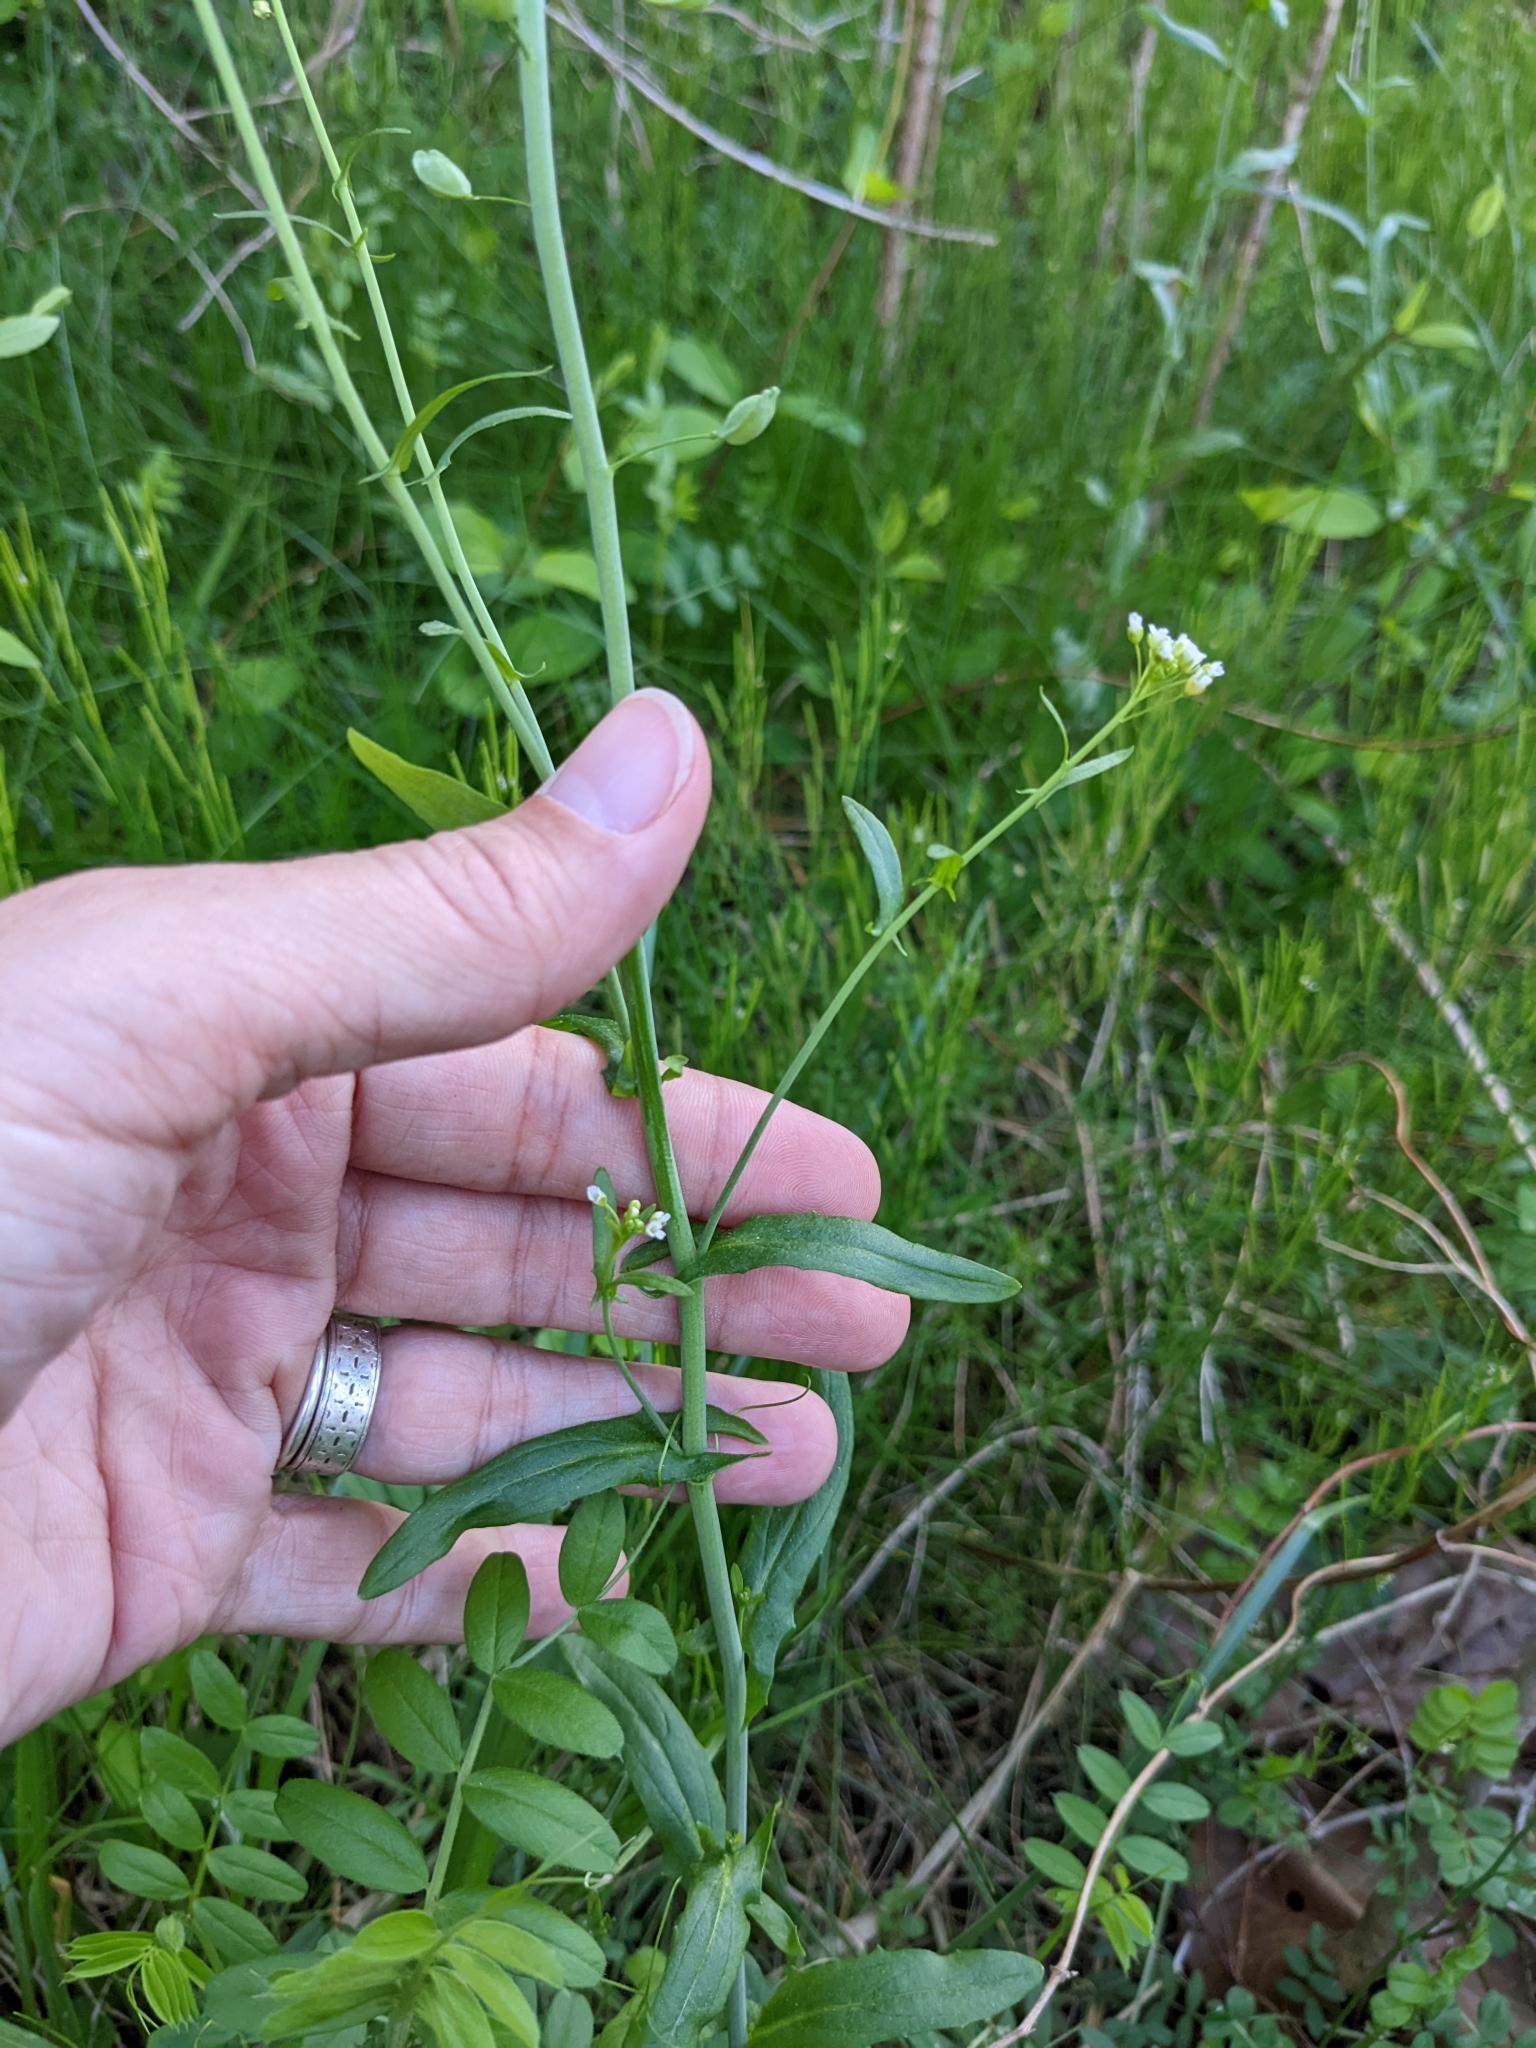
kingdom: Plantae
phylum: Tracheophyta
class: Magnoliopsida
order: Brassicales
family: Brassicaceae
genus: Mummenhoffia
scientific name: Mummenhoffia alliacea
